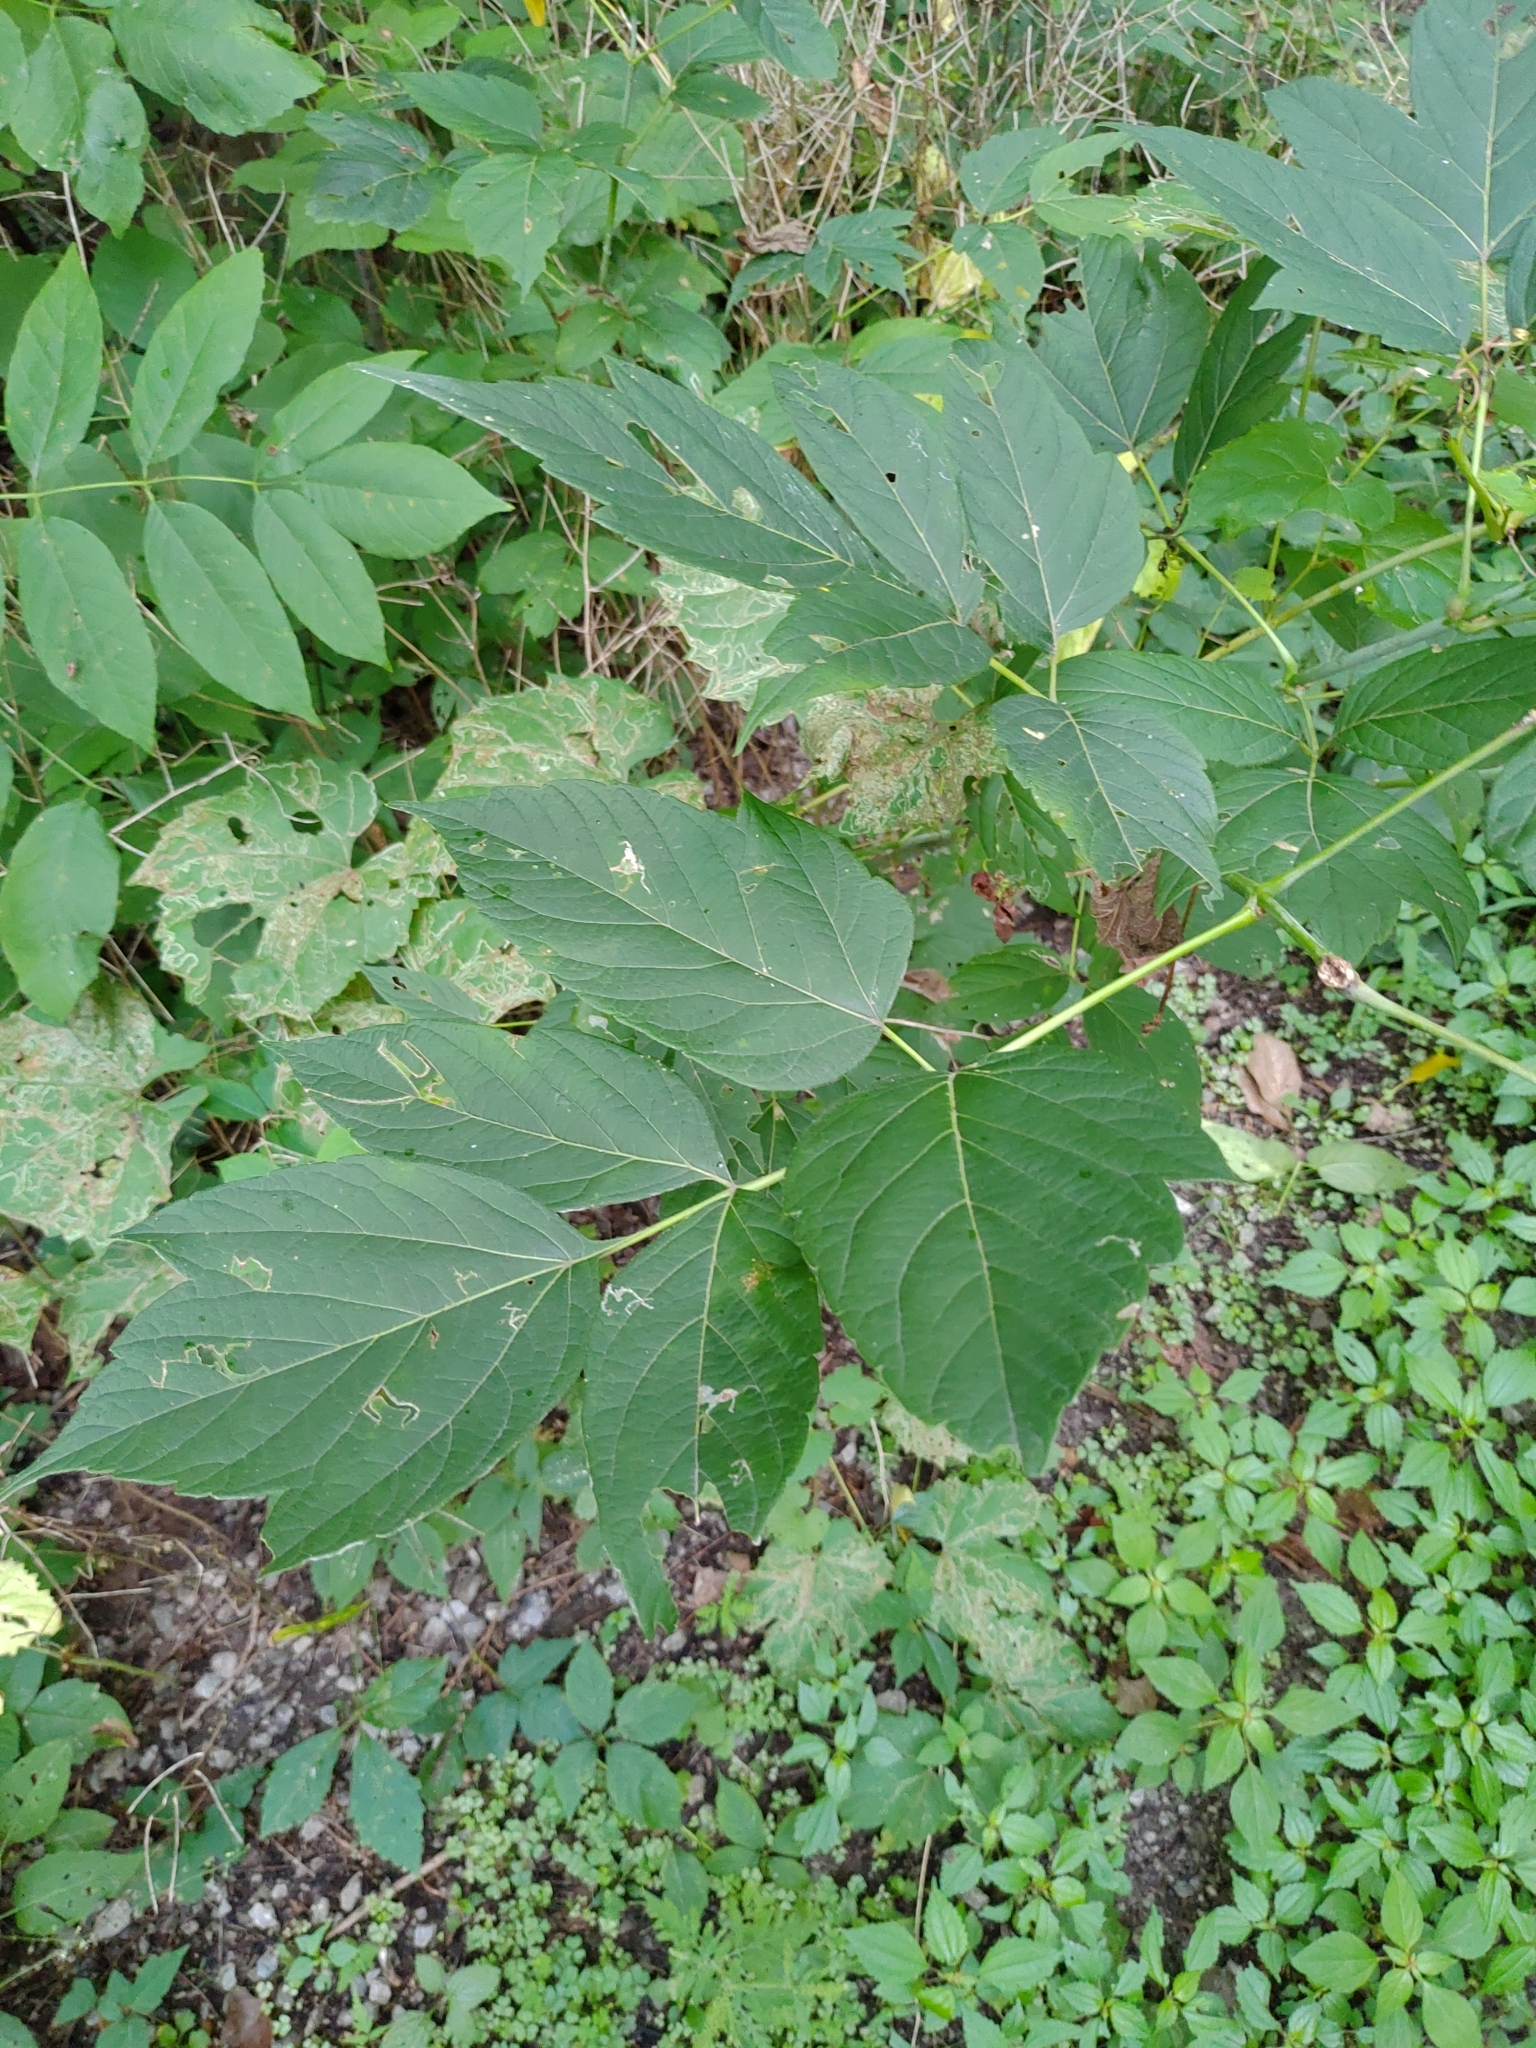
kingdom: Plantae
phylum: Tracheophyta
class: Magnoliopsida
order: Sapindales
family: Sapindaceae
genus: Acer
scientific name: Acer negundo
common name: Ashleaf maple
